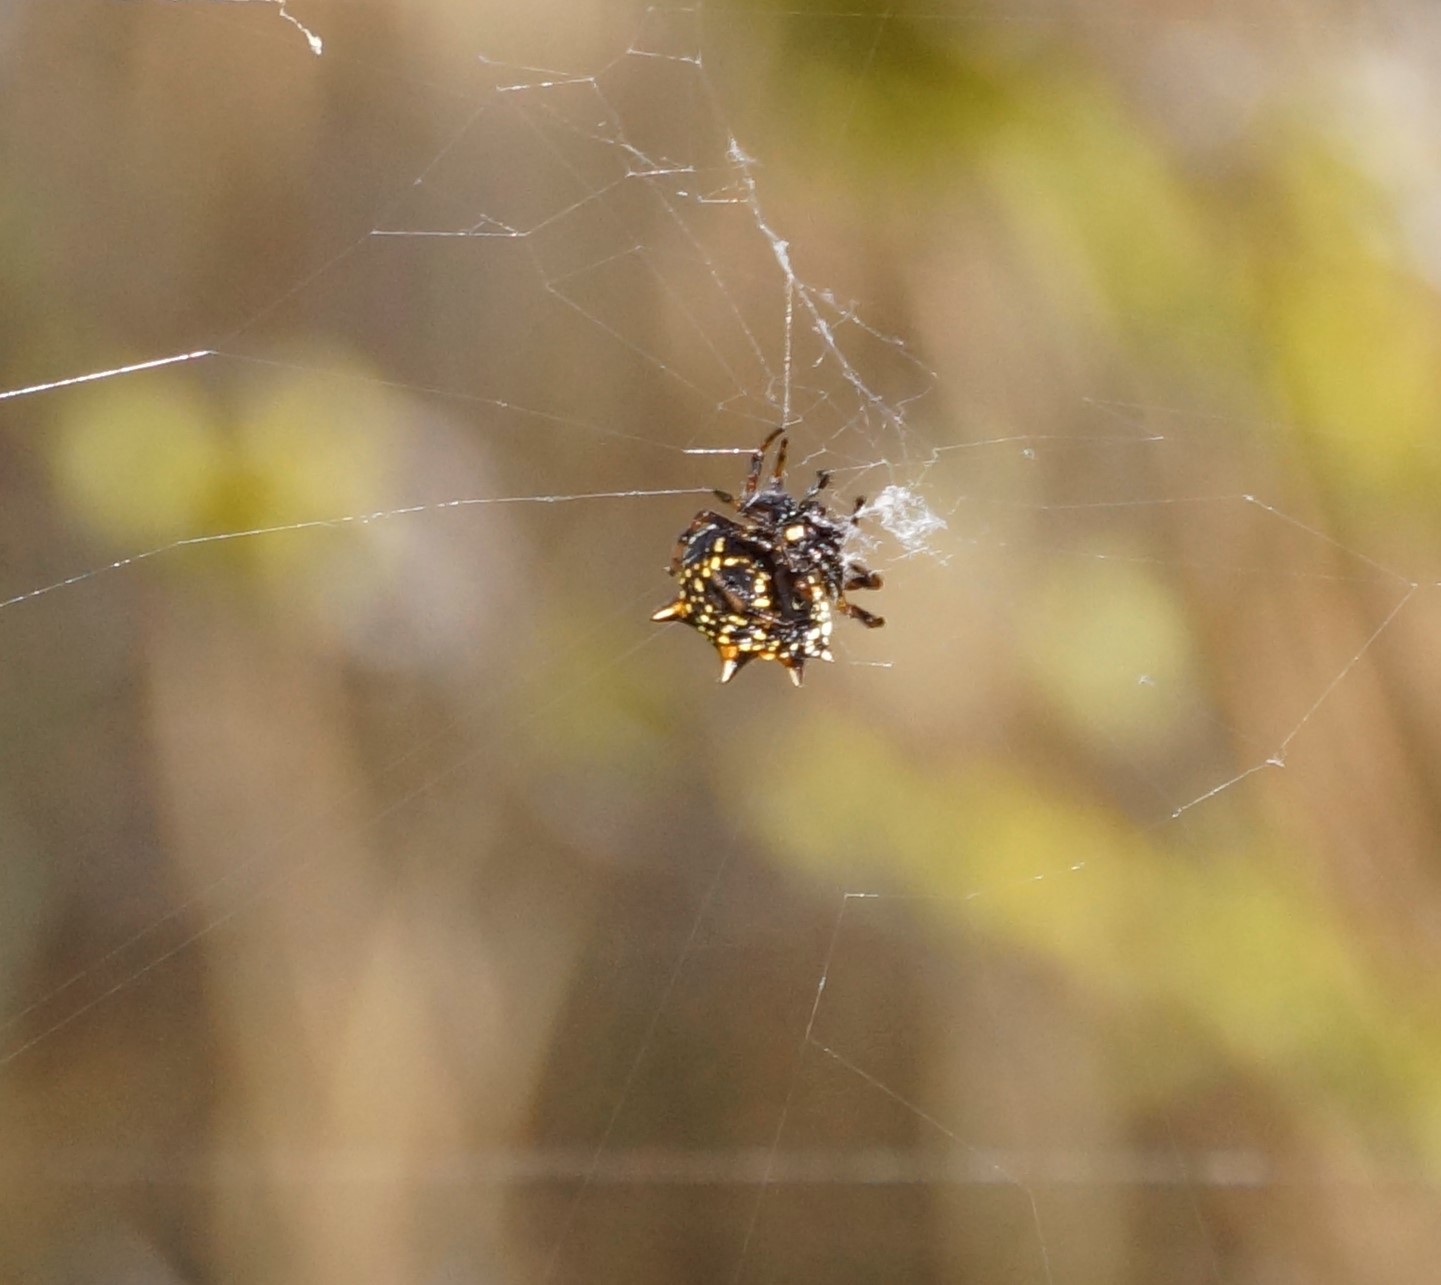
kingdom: Animalia
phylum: Arthropoda
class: Arachnida
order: Araneae
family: Araneidae
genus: Austracantha
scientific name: Austracantha minax
